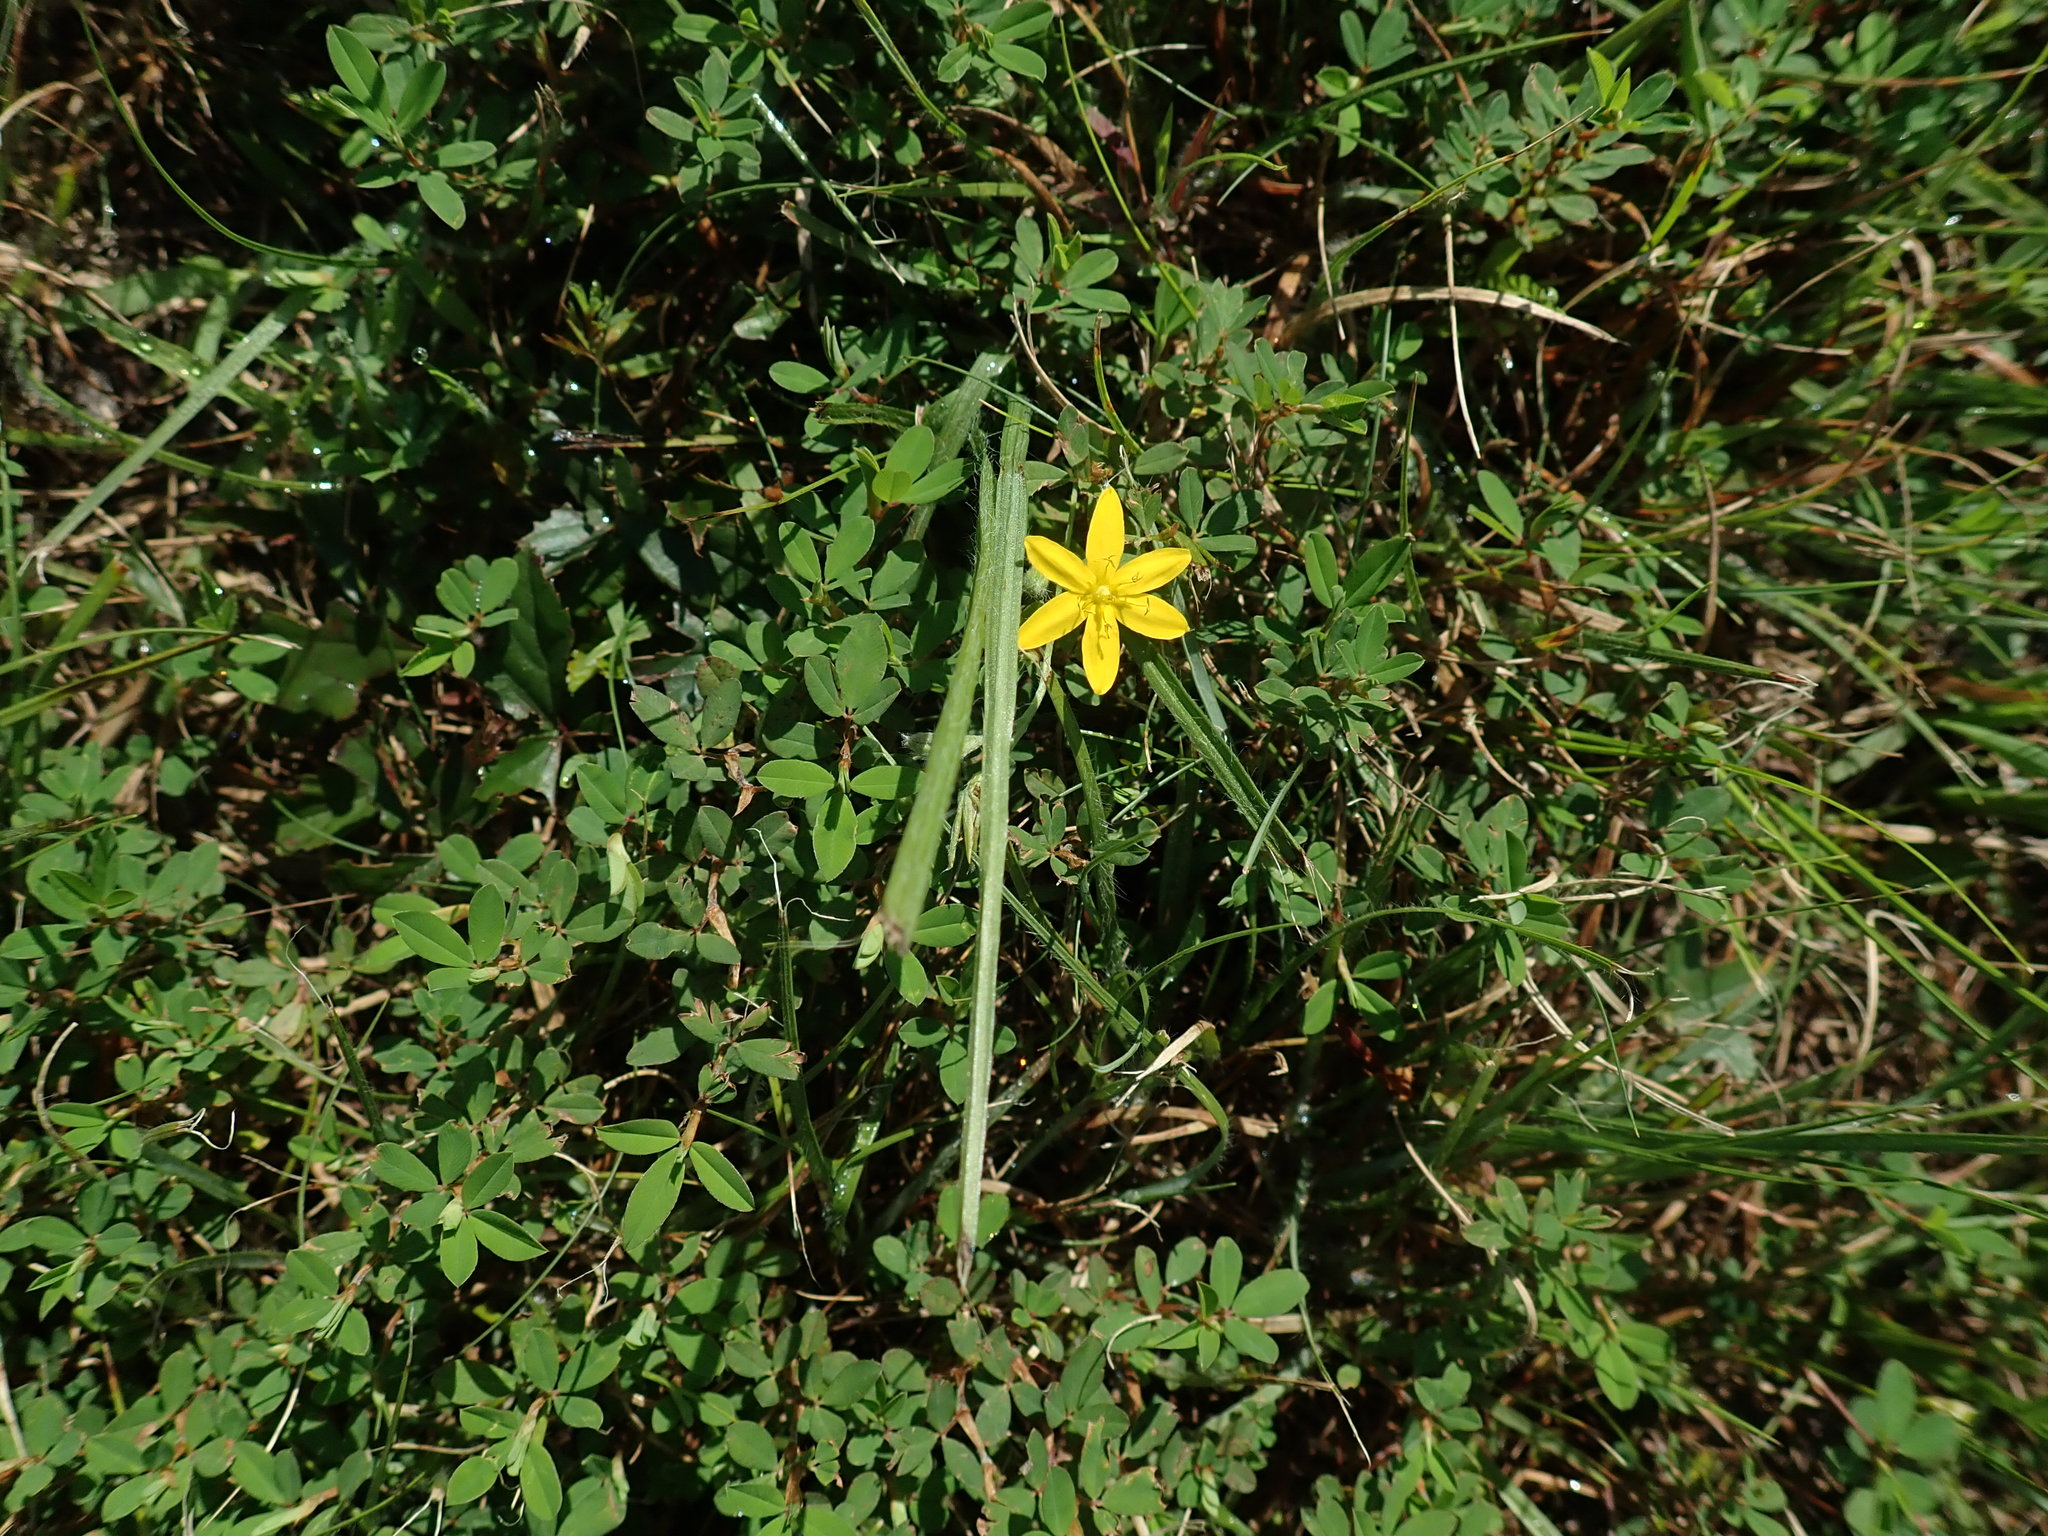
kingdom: Plantae
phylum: Tracheophyta
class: Liliopsida
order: Asparagales
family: Hypoxidaceae
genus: Hypoxis
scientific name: Hypoxis hirsuta
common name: Common goldstar
